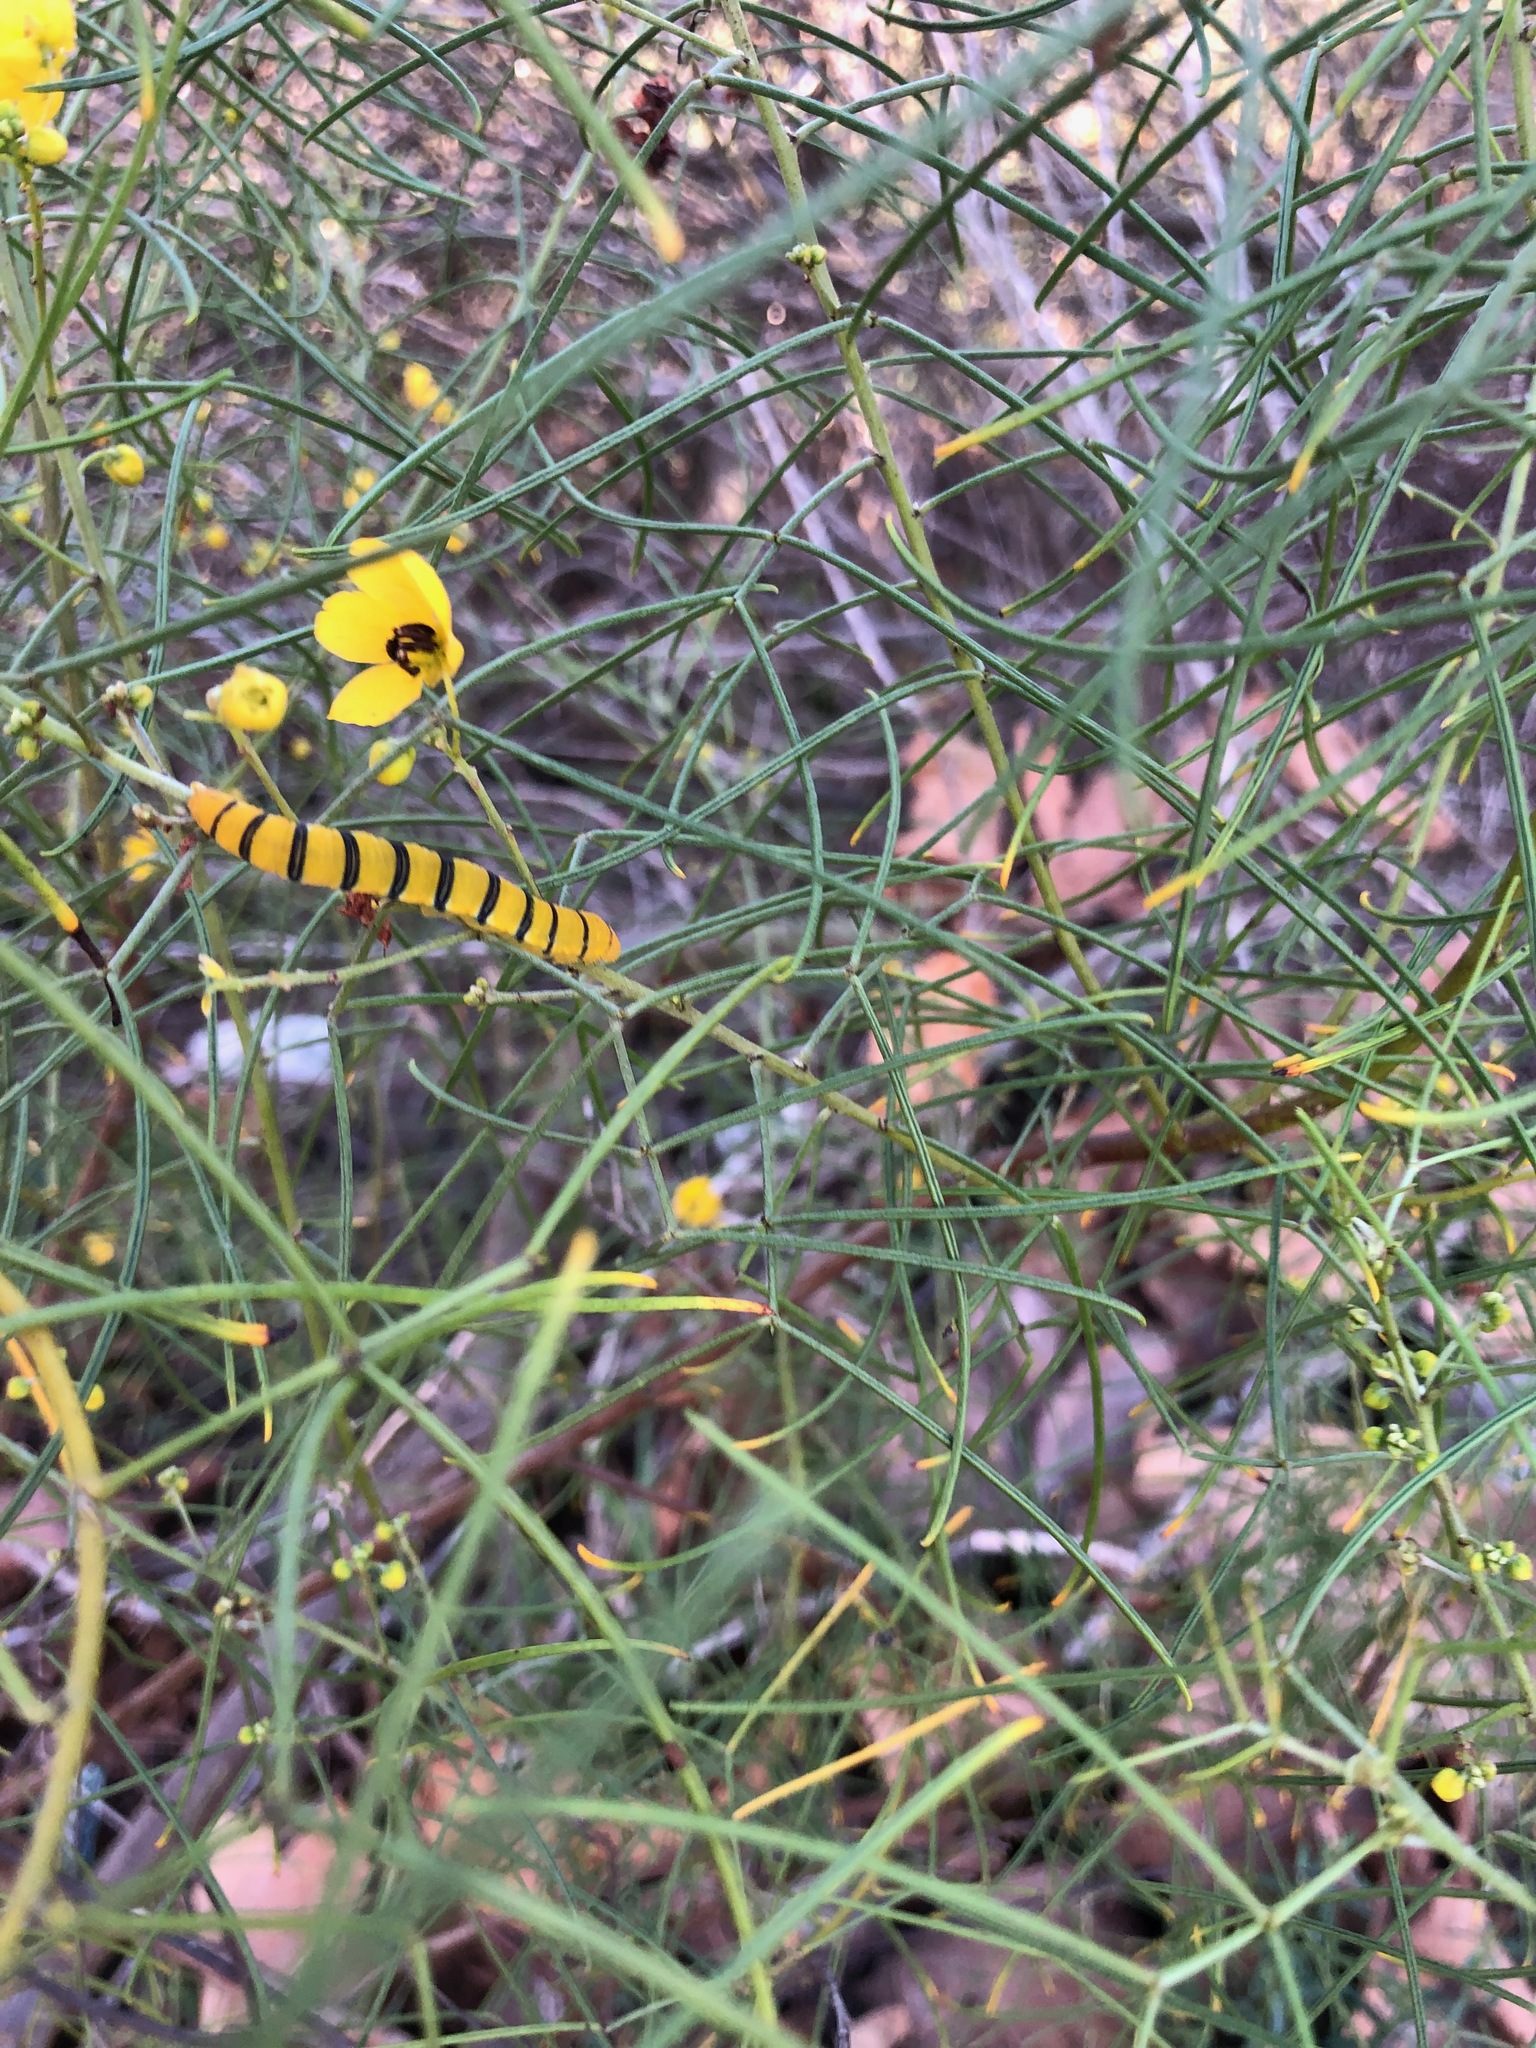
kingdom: Animalia
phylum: Arthropoda
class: Insecta
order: Lepidoptera
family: Pieridae
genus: Phoebis
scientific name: Phoebis sennae
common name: Cloudless sulphur
